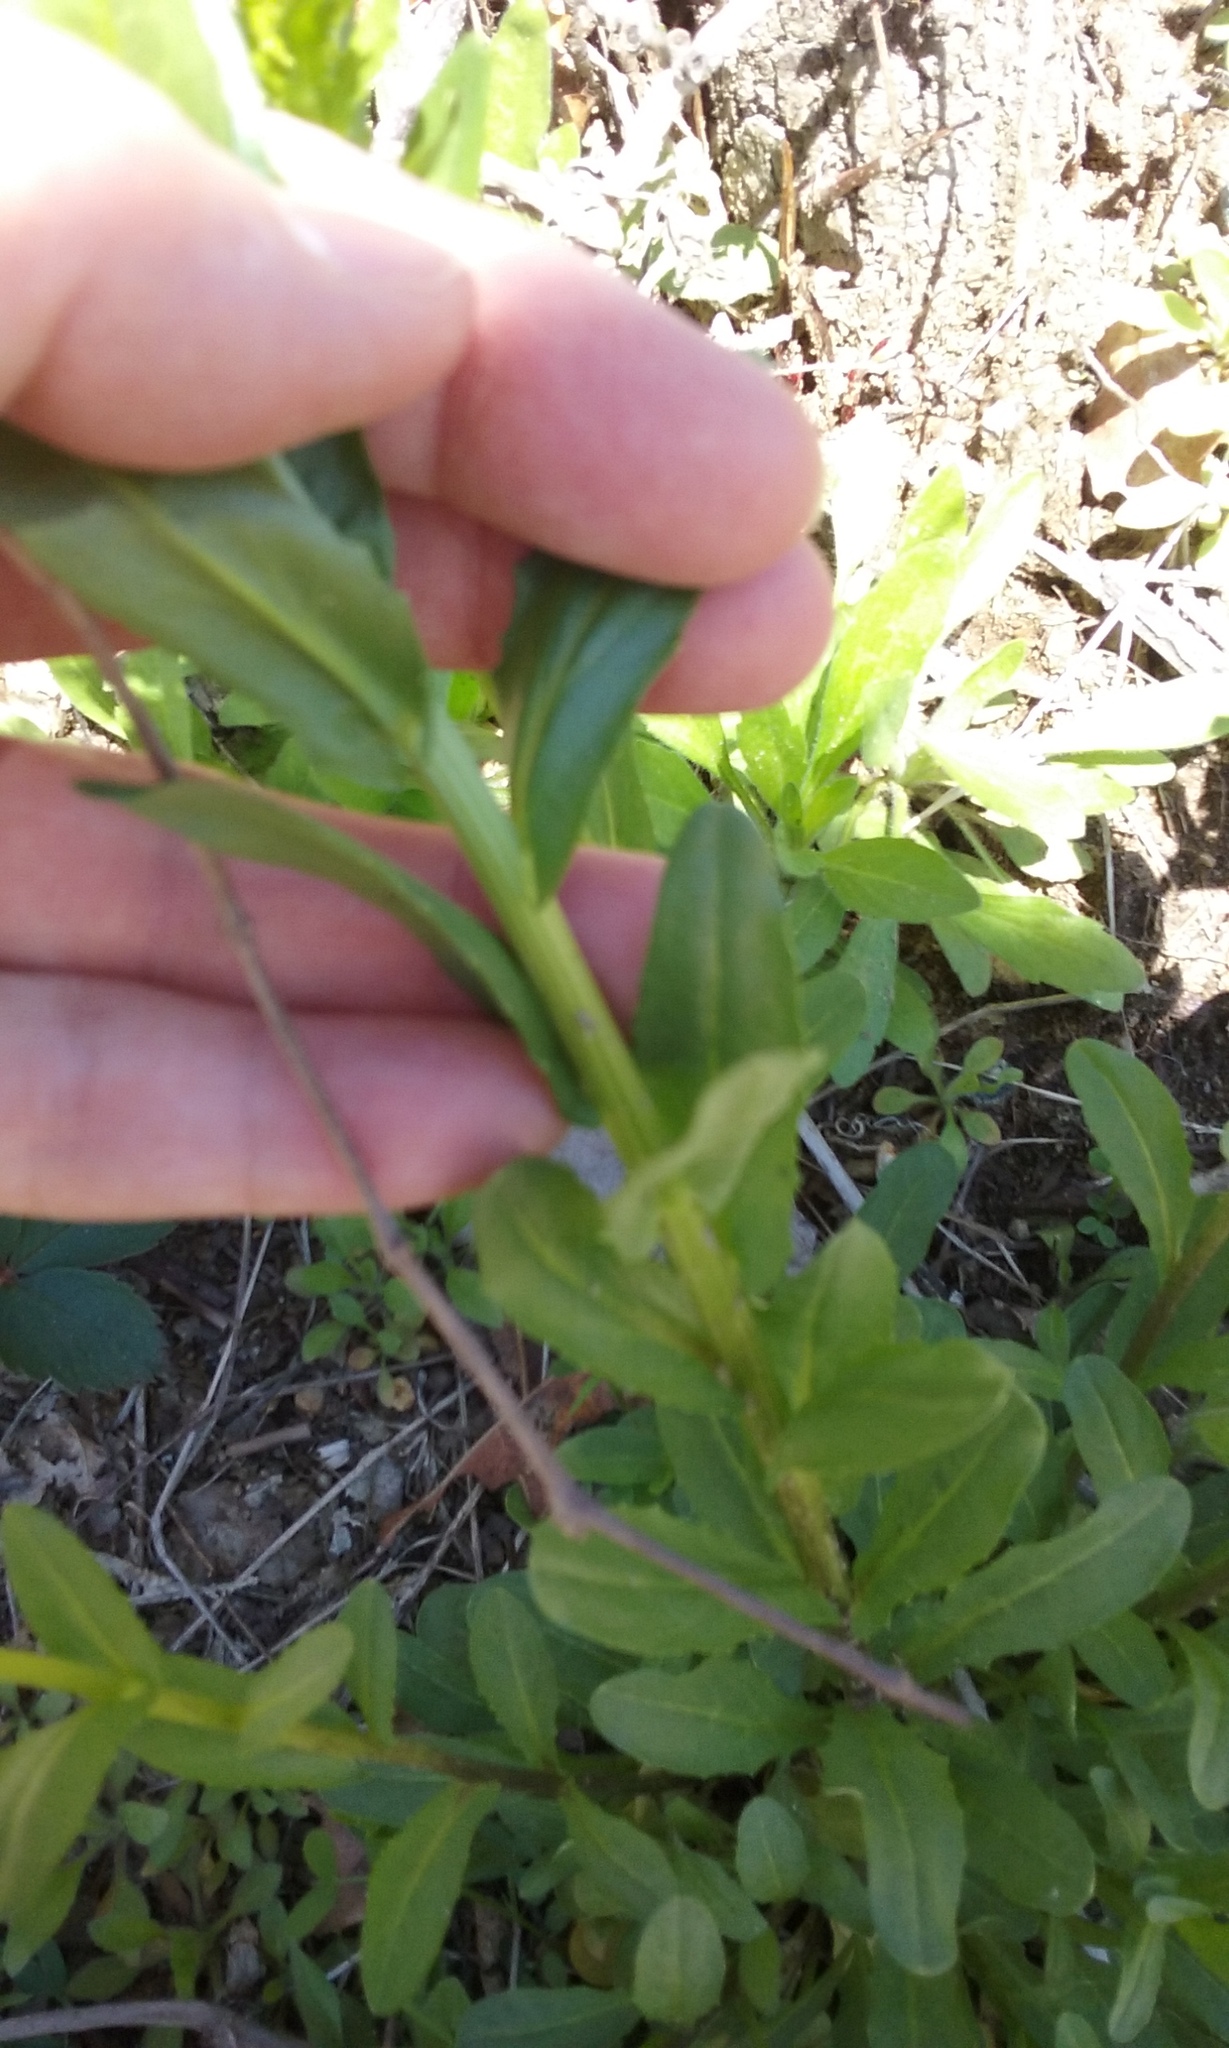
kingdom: Plantae
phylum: Tracheophyta
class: Magnoliopsida
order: Brassicales
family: Brassicaceae
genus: Thlaspi
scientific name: Thlaspi arvense
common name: Field pennycress
